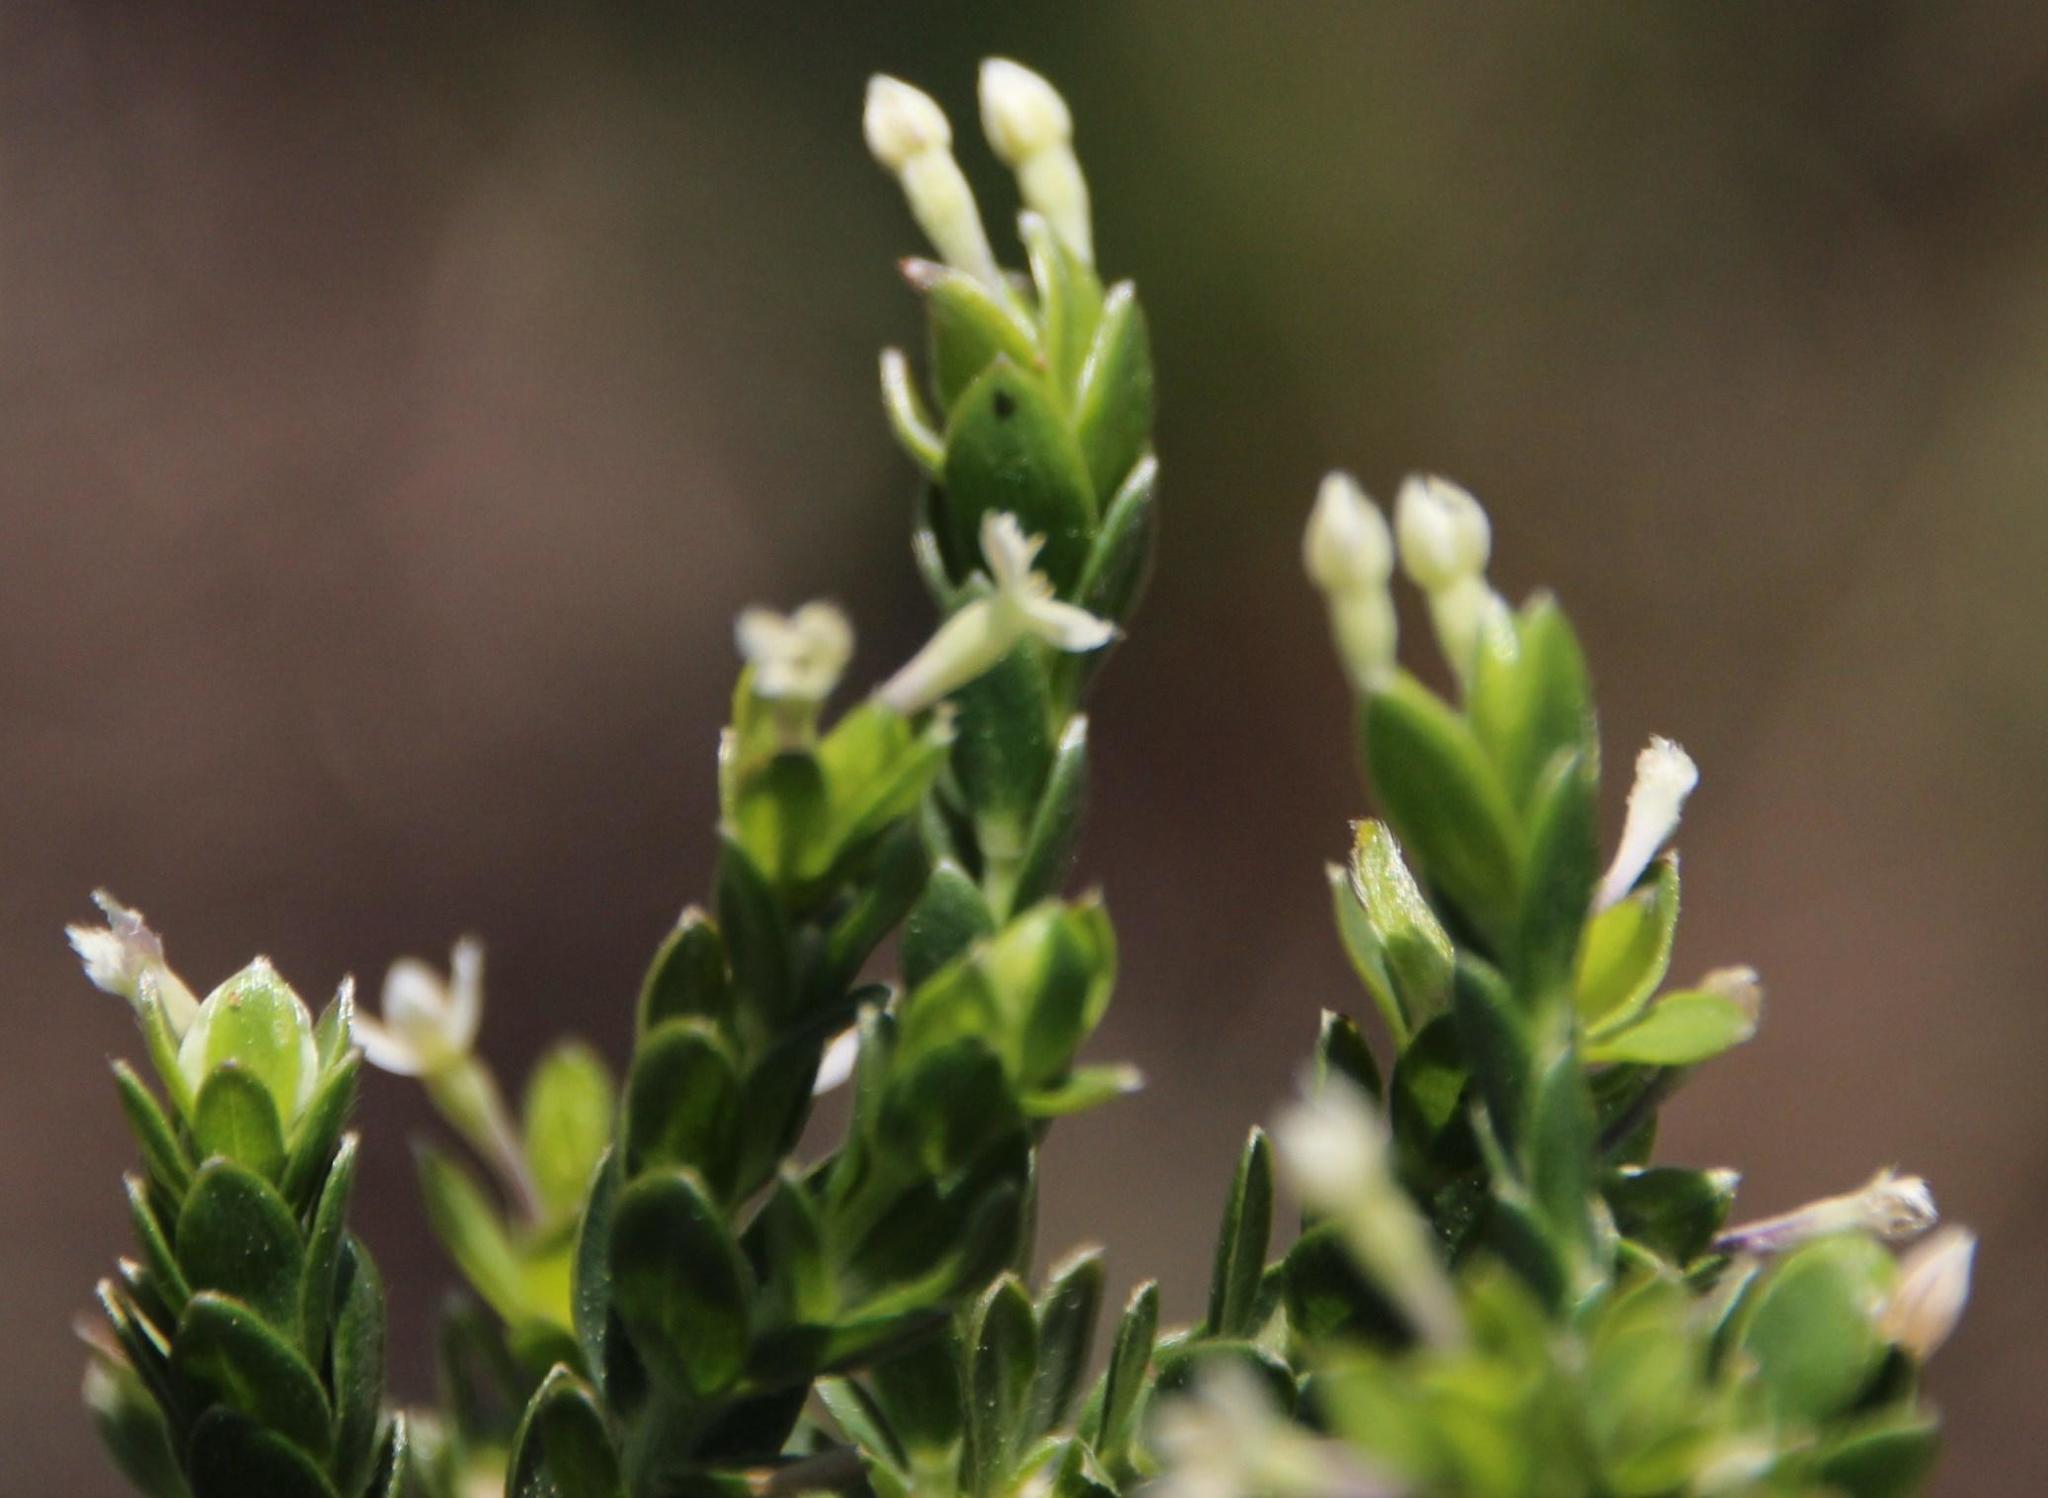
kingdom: Plantae
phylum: Tracheophyta
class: Magnoliopsida
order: Malvales
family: Thymelaeaceae
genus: Gnidia
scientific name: Gnidia sericea
